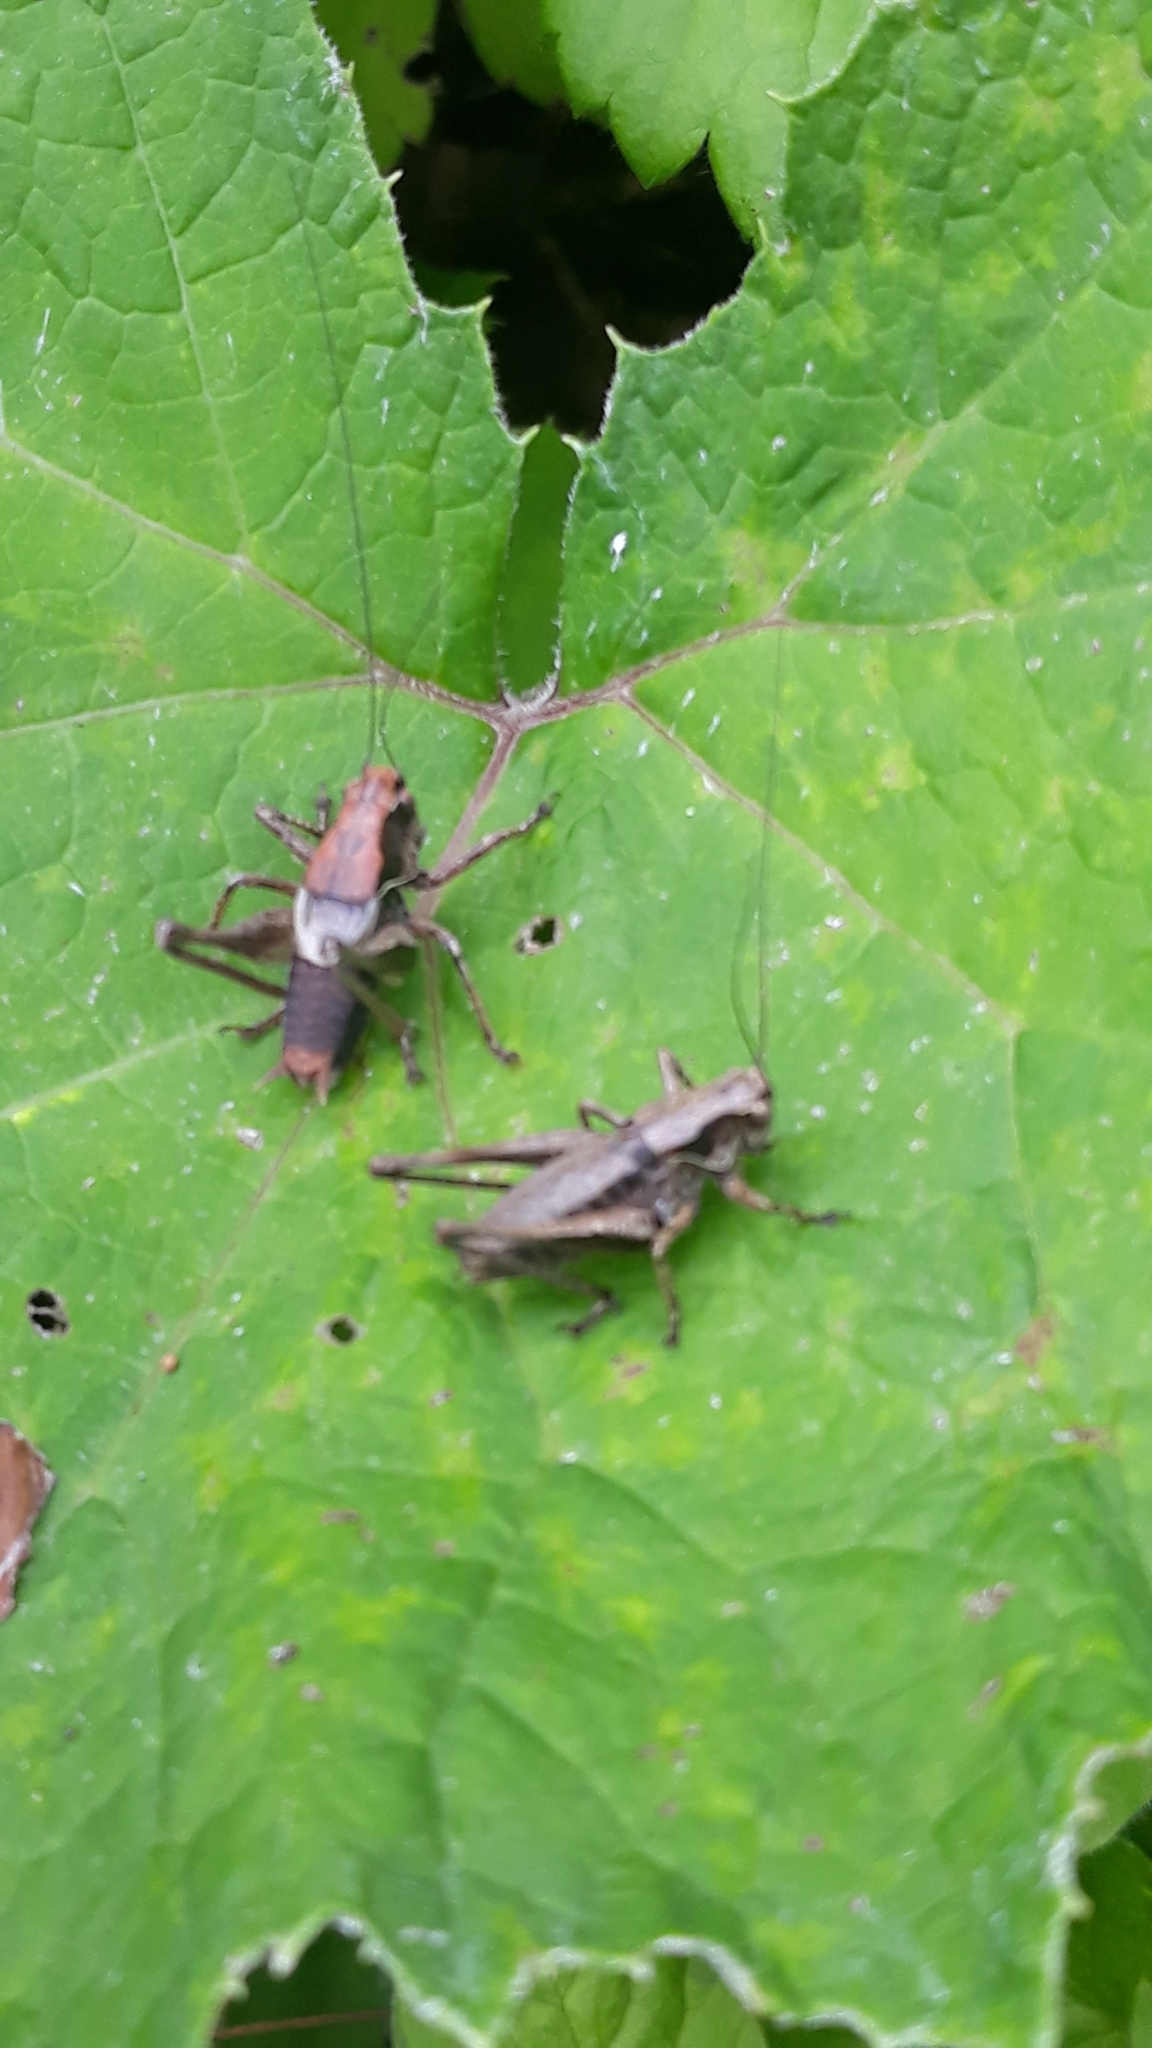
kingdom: Animalia
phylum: Arthropoda
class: Insecta
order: Orthoptera
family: Tettigoniidae
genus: Pholidoptera
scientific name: Pholidoptera griseoaptera
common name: Dark bush-cricket
